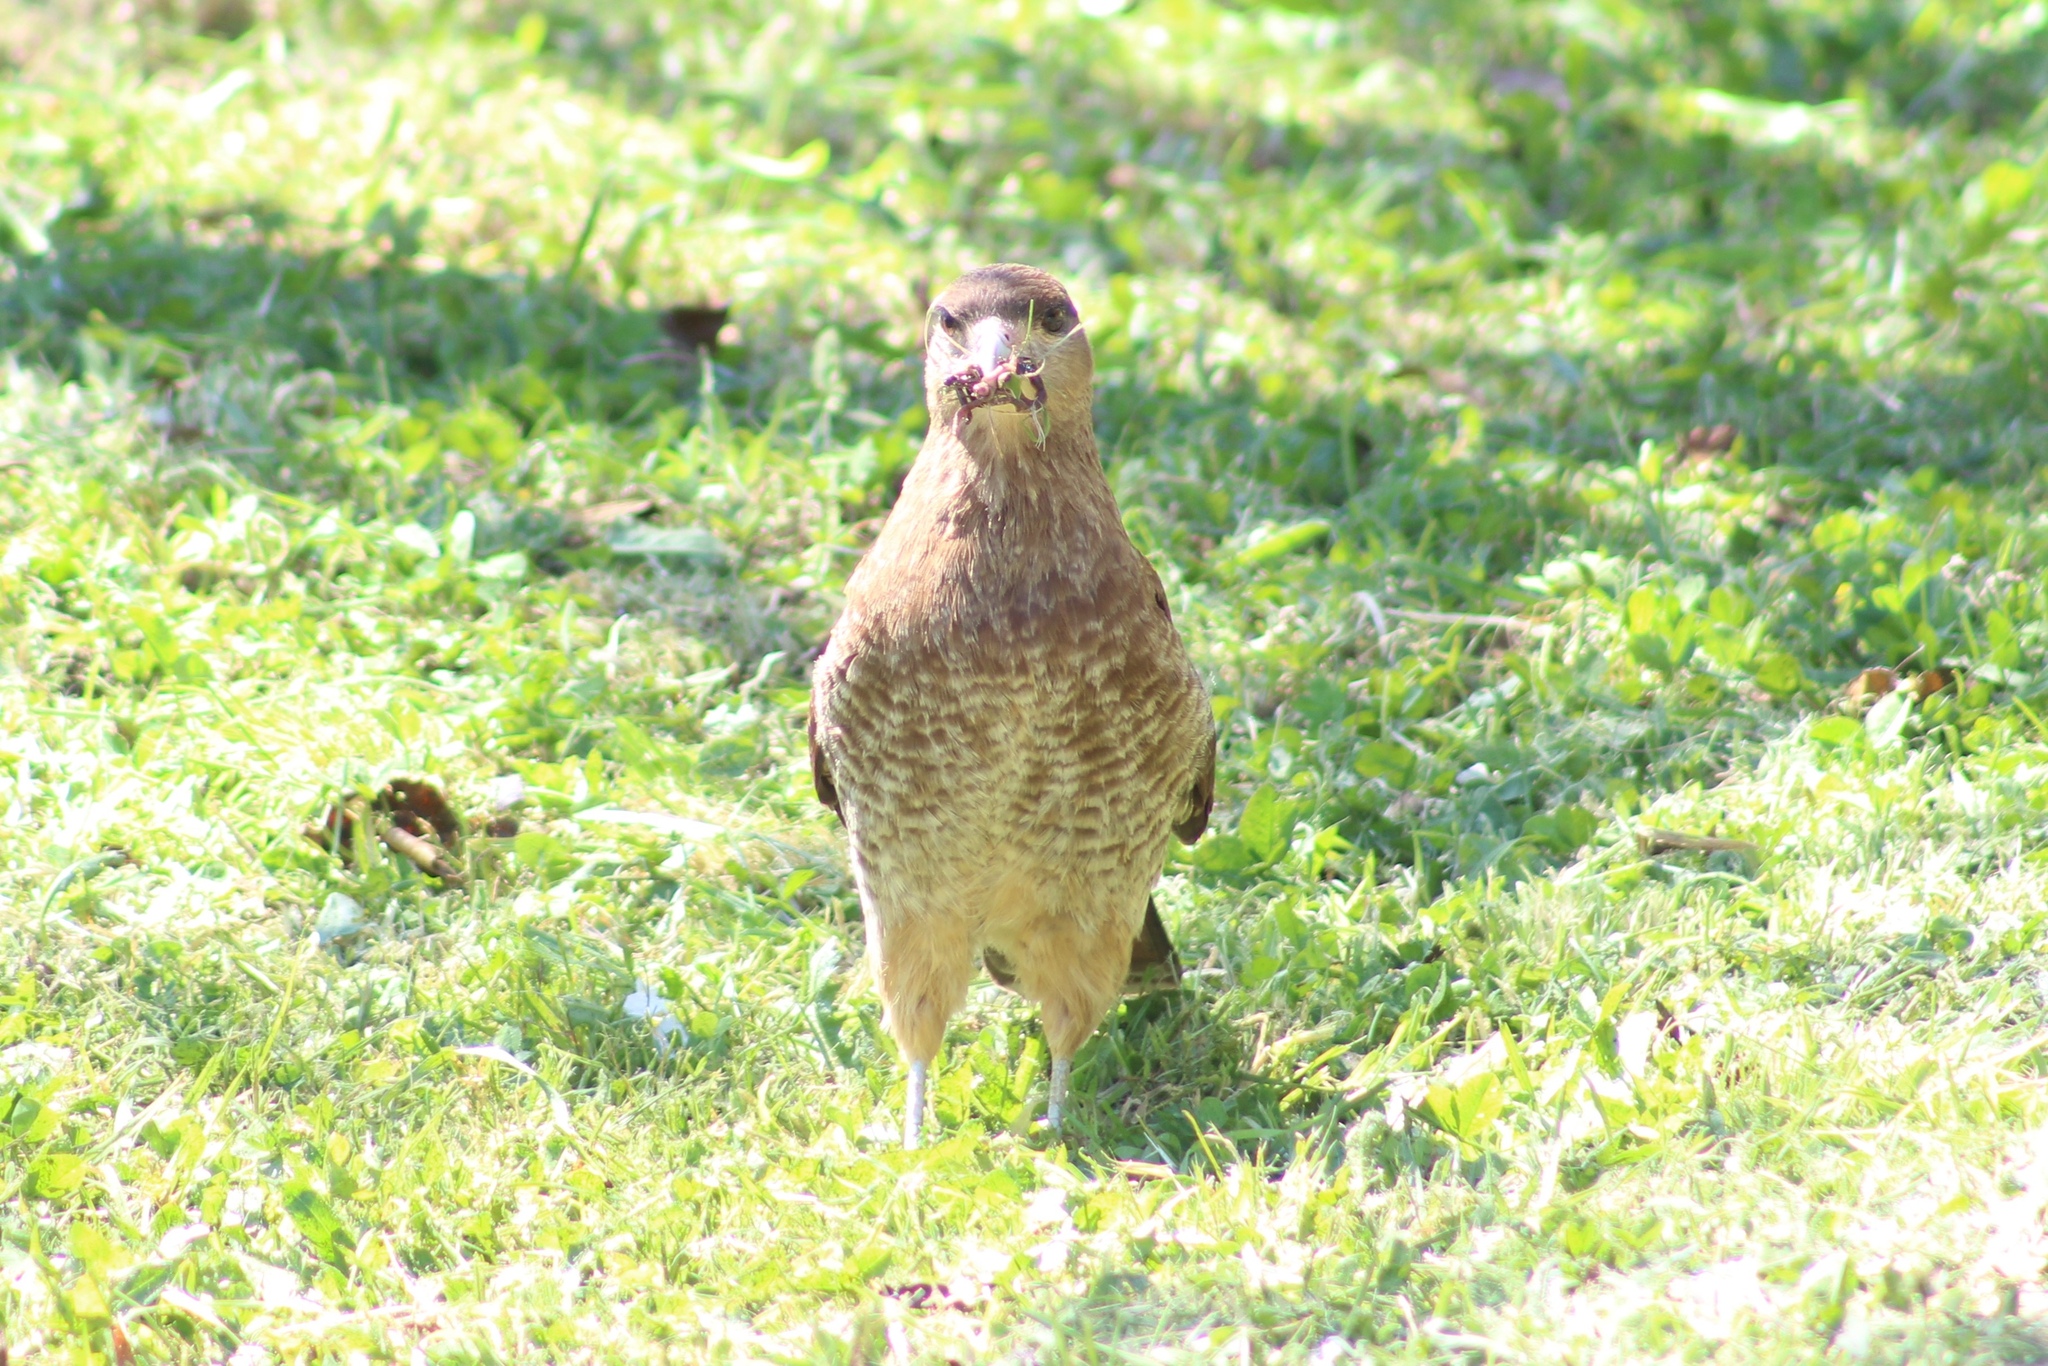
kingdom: Animalia
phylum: Chordata
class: Aves
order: Falconiformes
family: Falconidae
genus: Daptrius
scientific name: Daptrius
